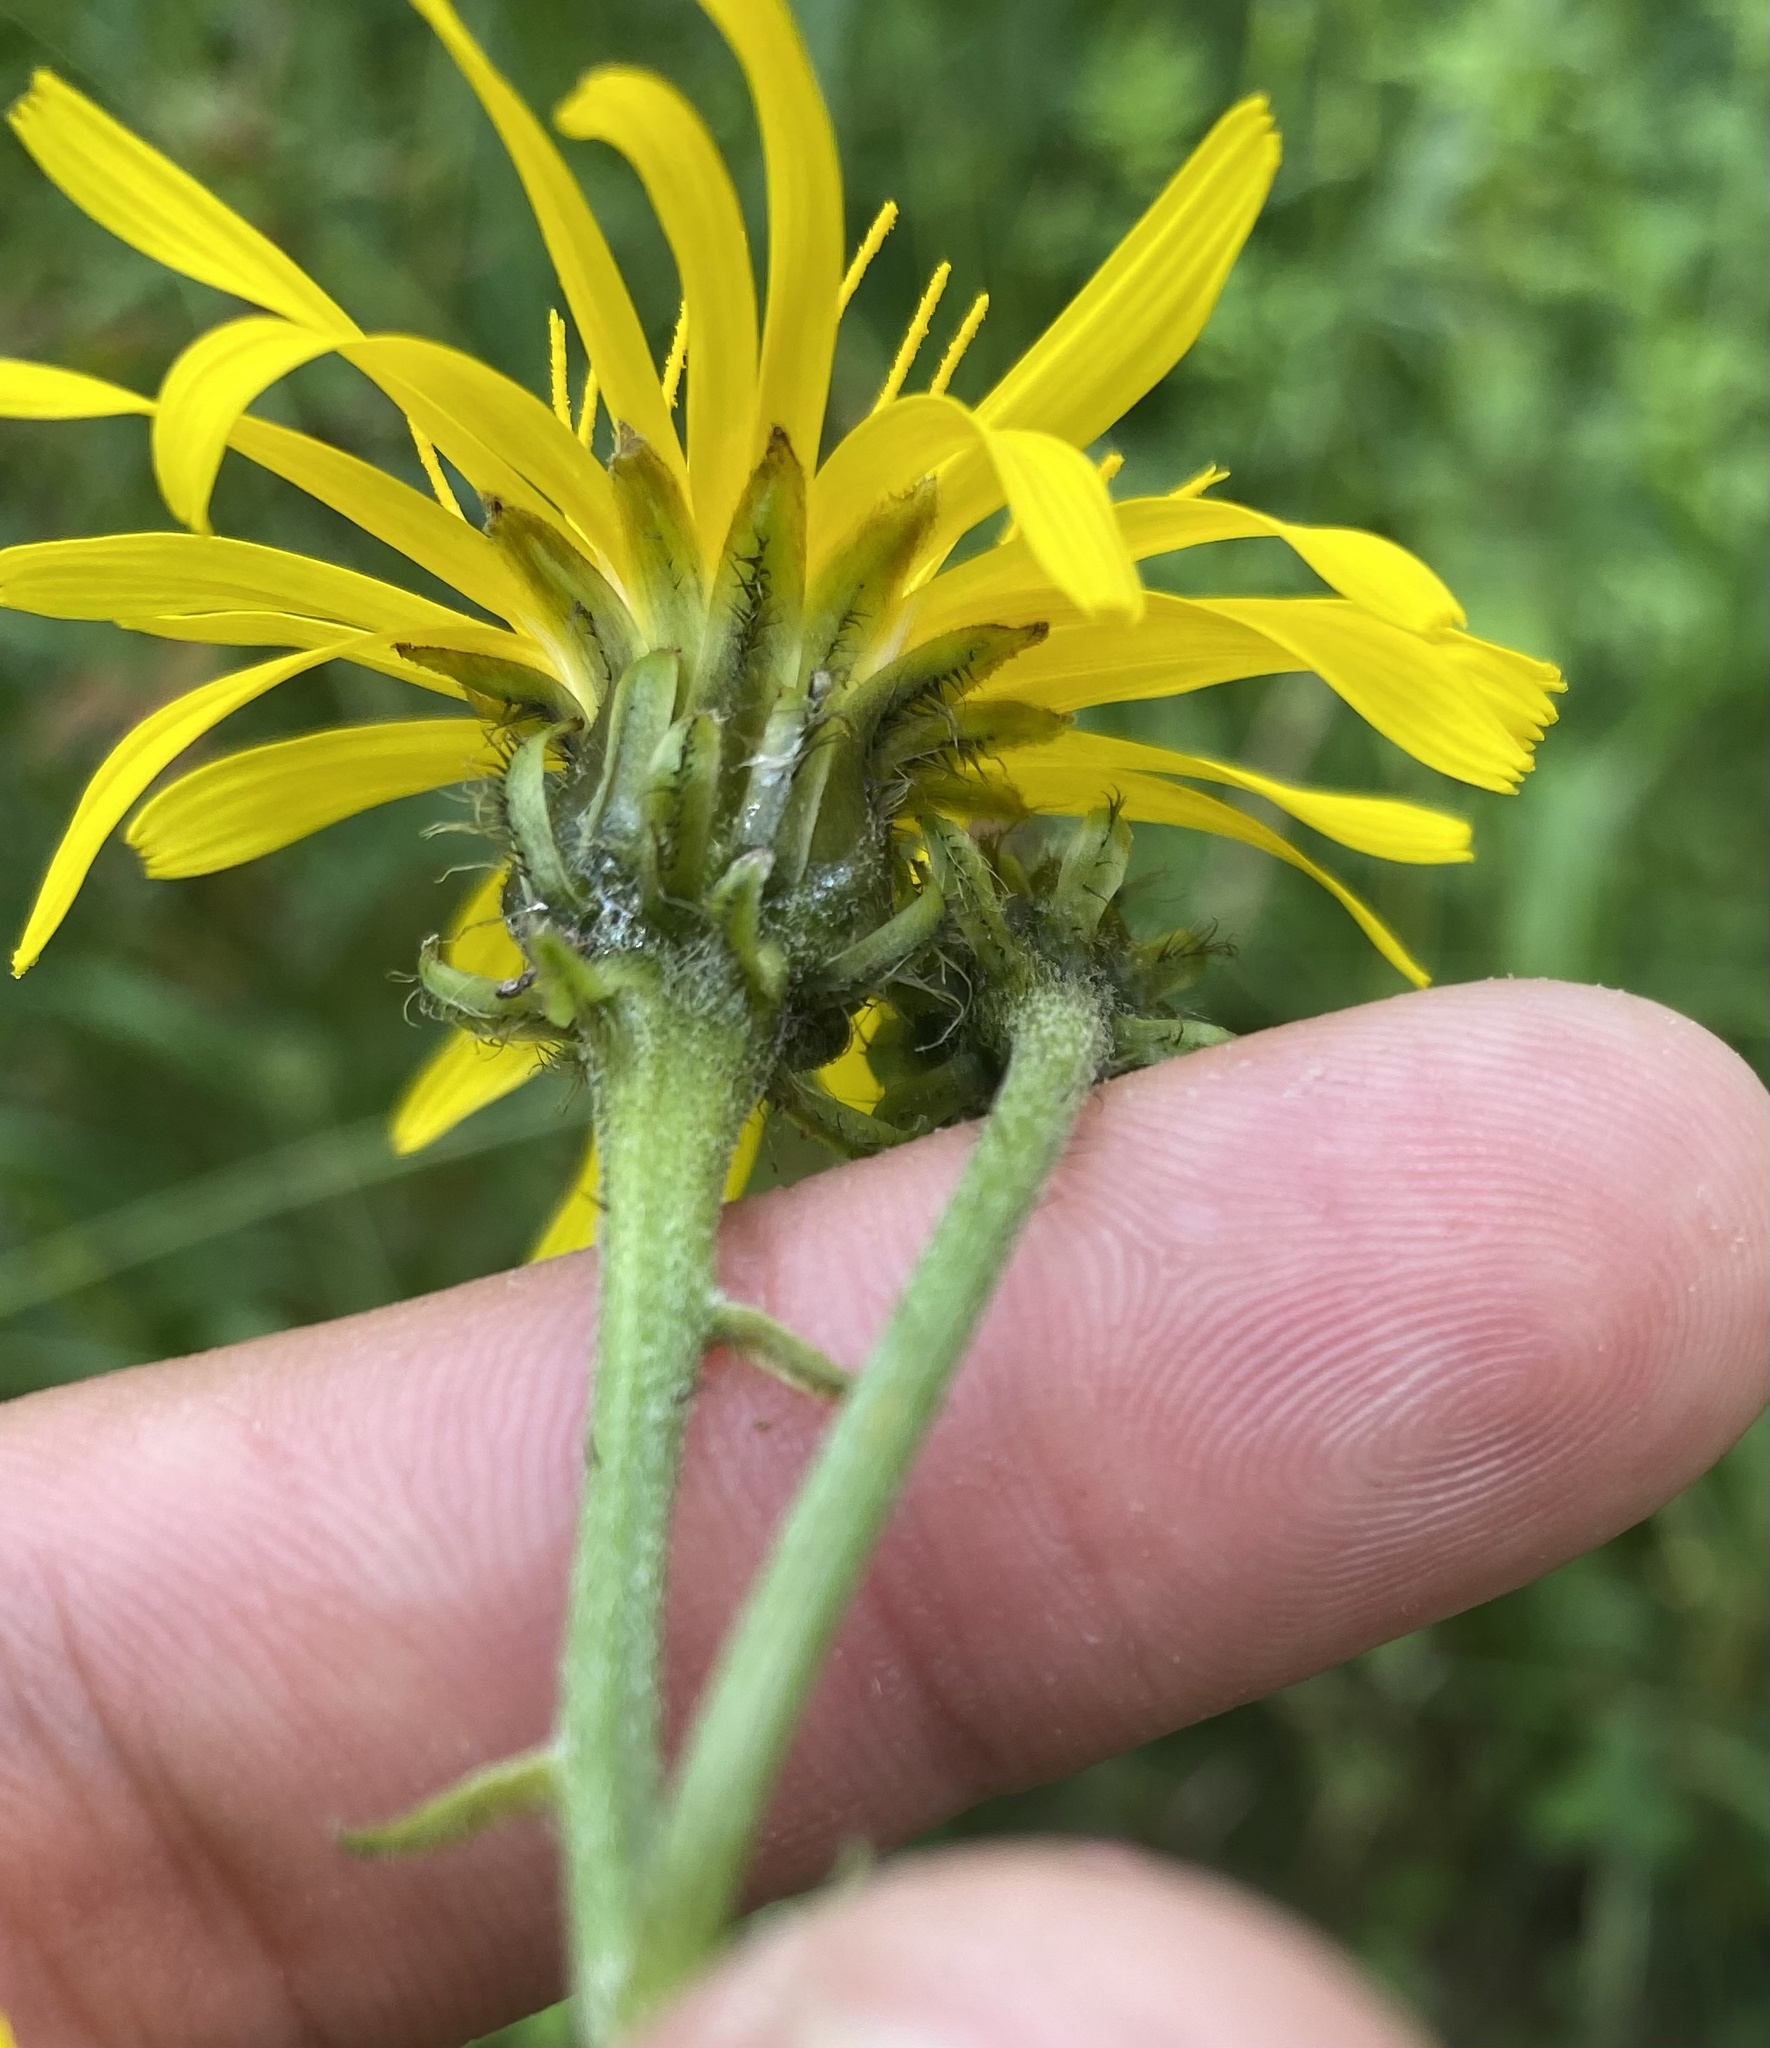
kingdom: Plantae
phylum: Tracheophyta
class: Magnoliopsida
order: Asterales
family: Asteraceae
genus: Crepis
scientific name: Crepis sibirica
